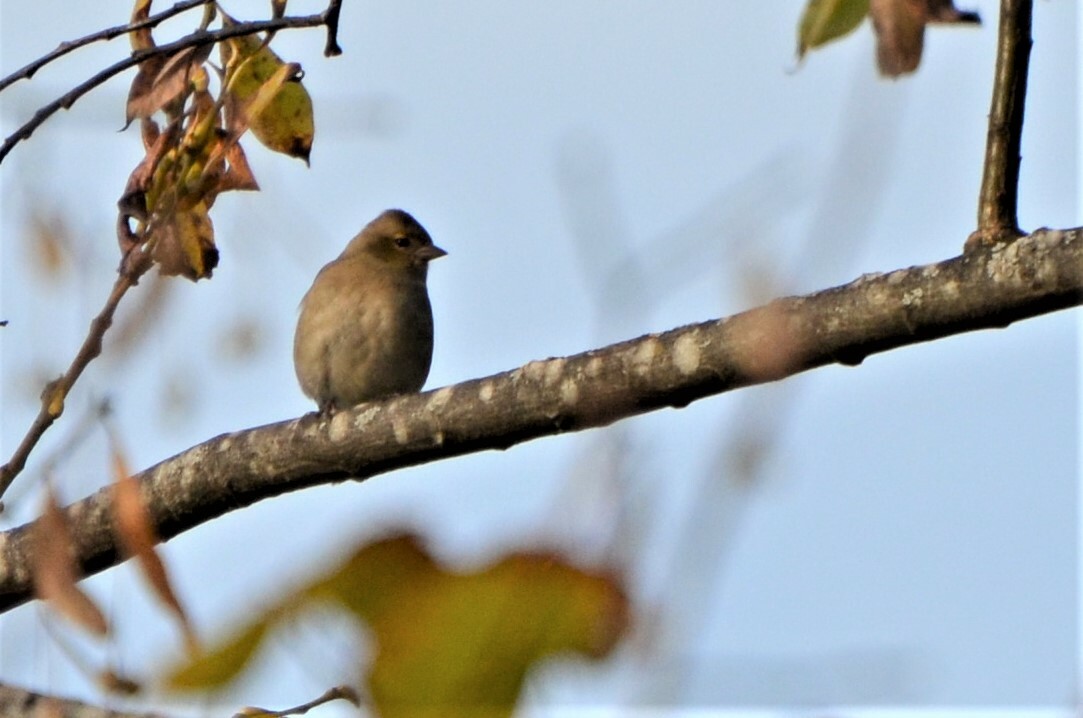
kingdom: Animalia
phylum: Chordata
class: Aves
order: Passeriformes
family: Fringillidae
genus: Fringilla
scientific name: Fringilla coelebs
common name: Common chaffinch
